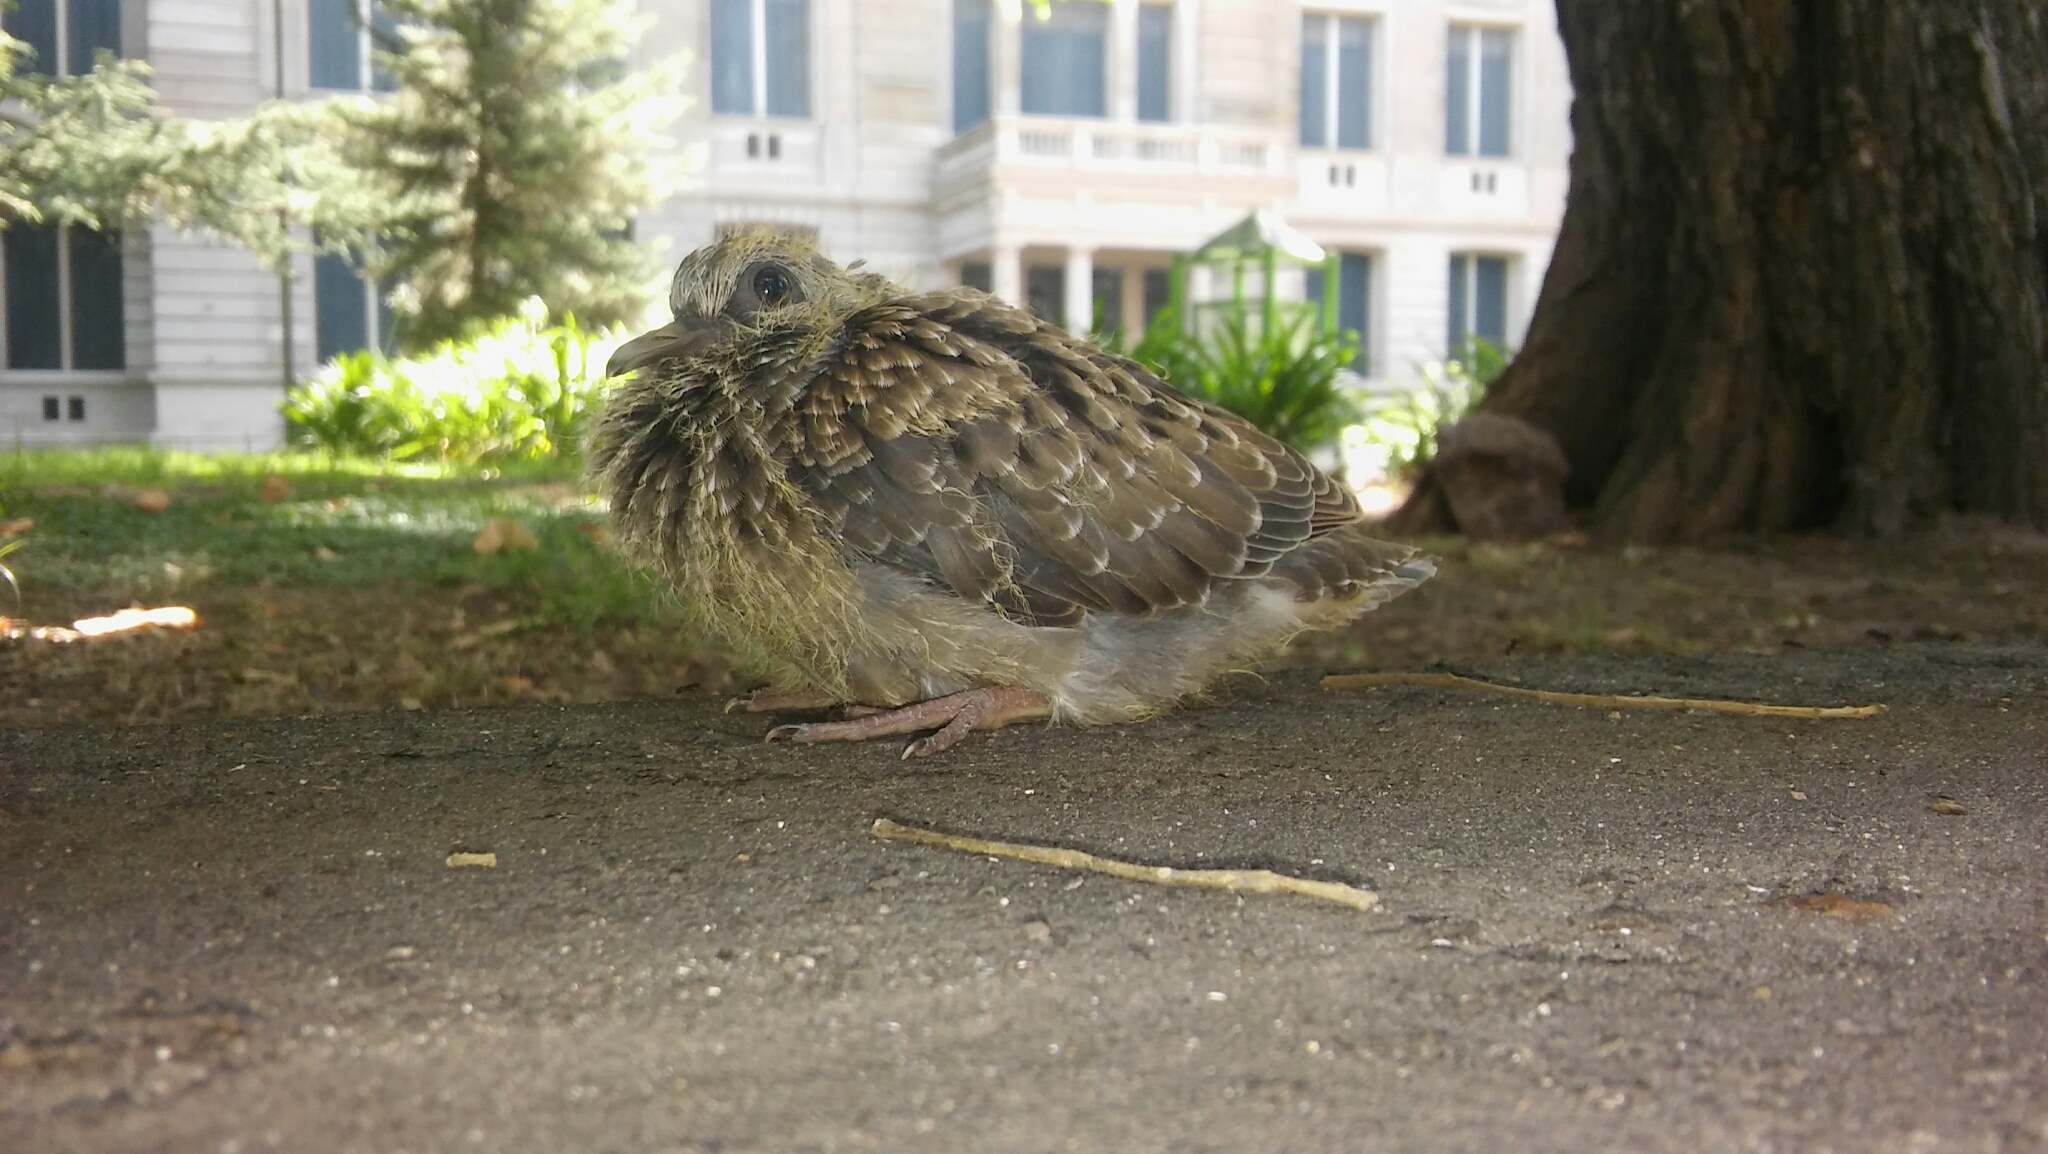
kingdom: Animalia
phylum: Chordata
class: Aves
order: Columbiformes
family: Columbidae
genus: Zenaida
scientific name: Zenaida auriculata
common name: Eared dove
